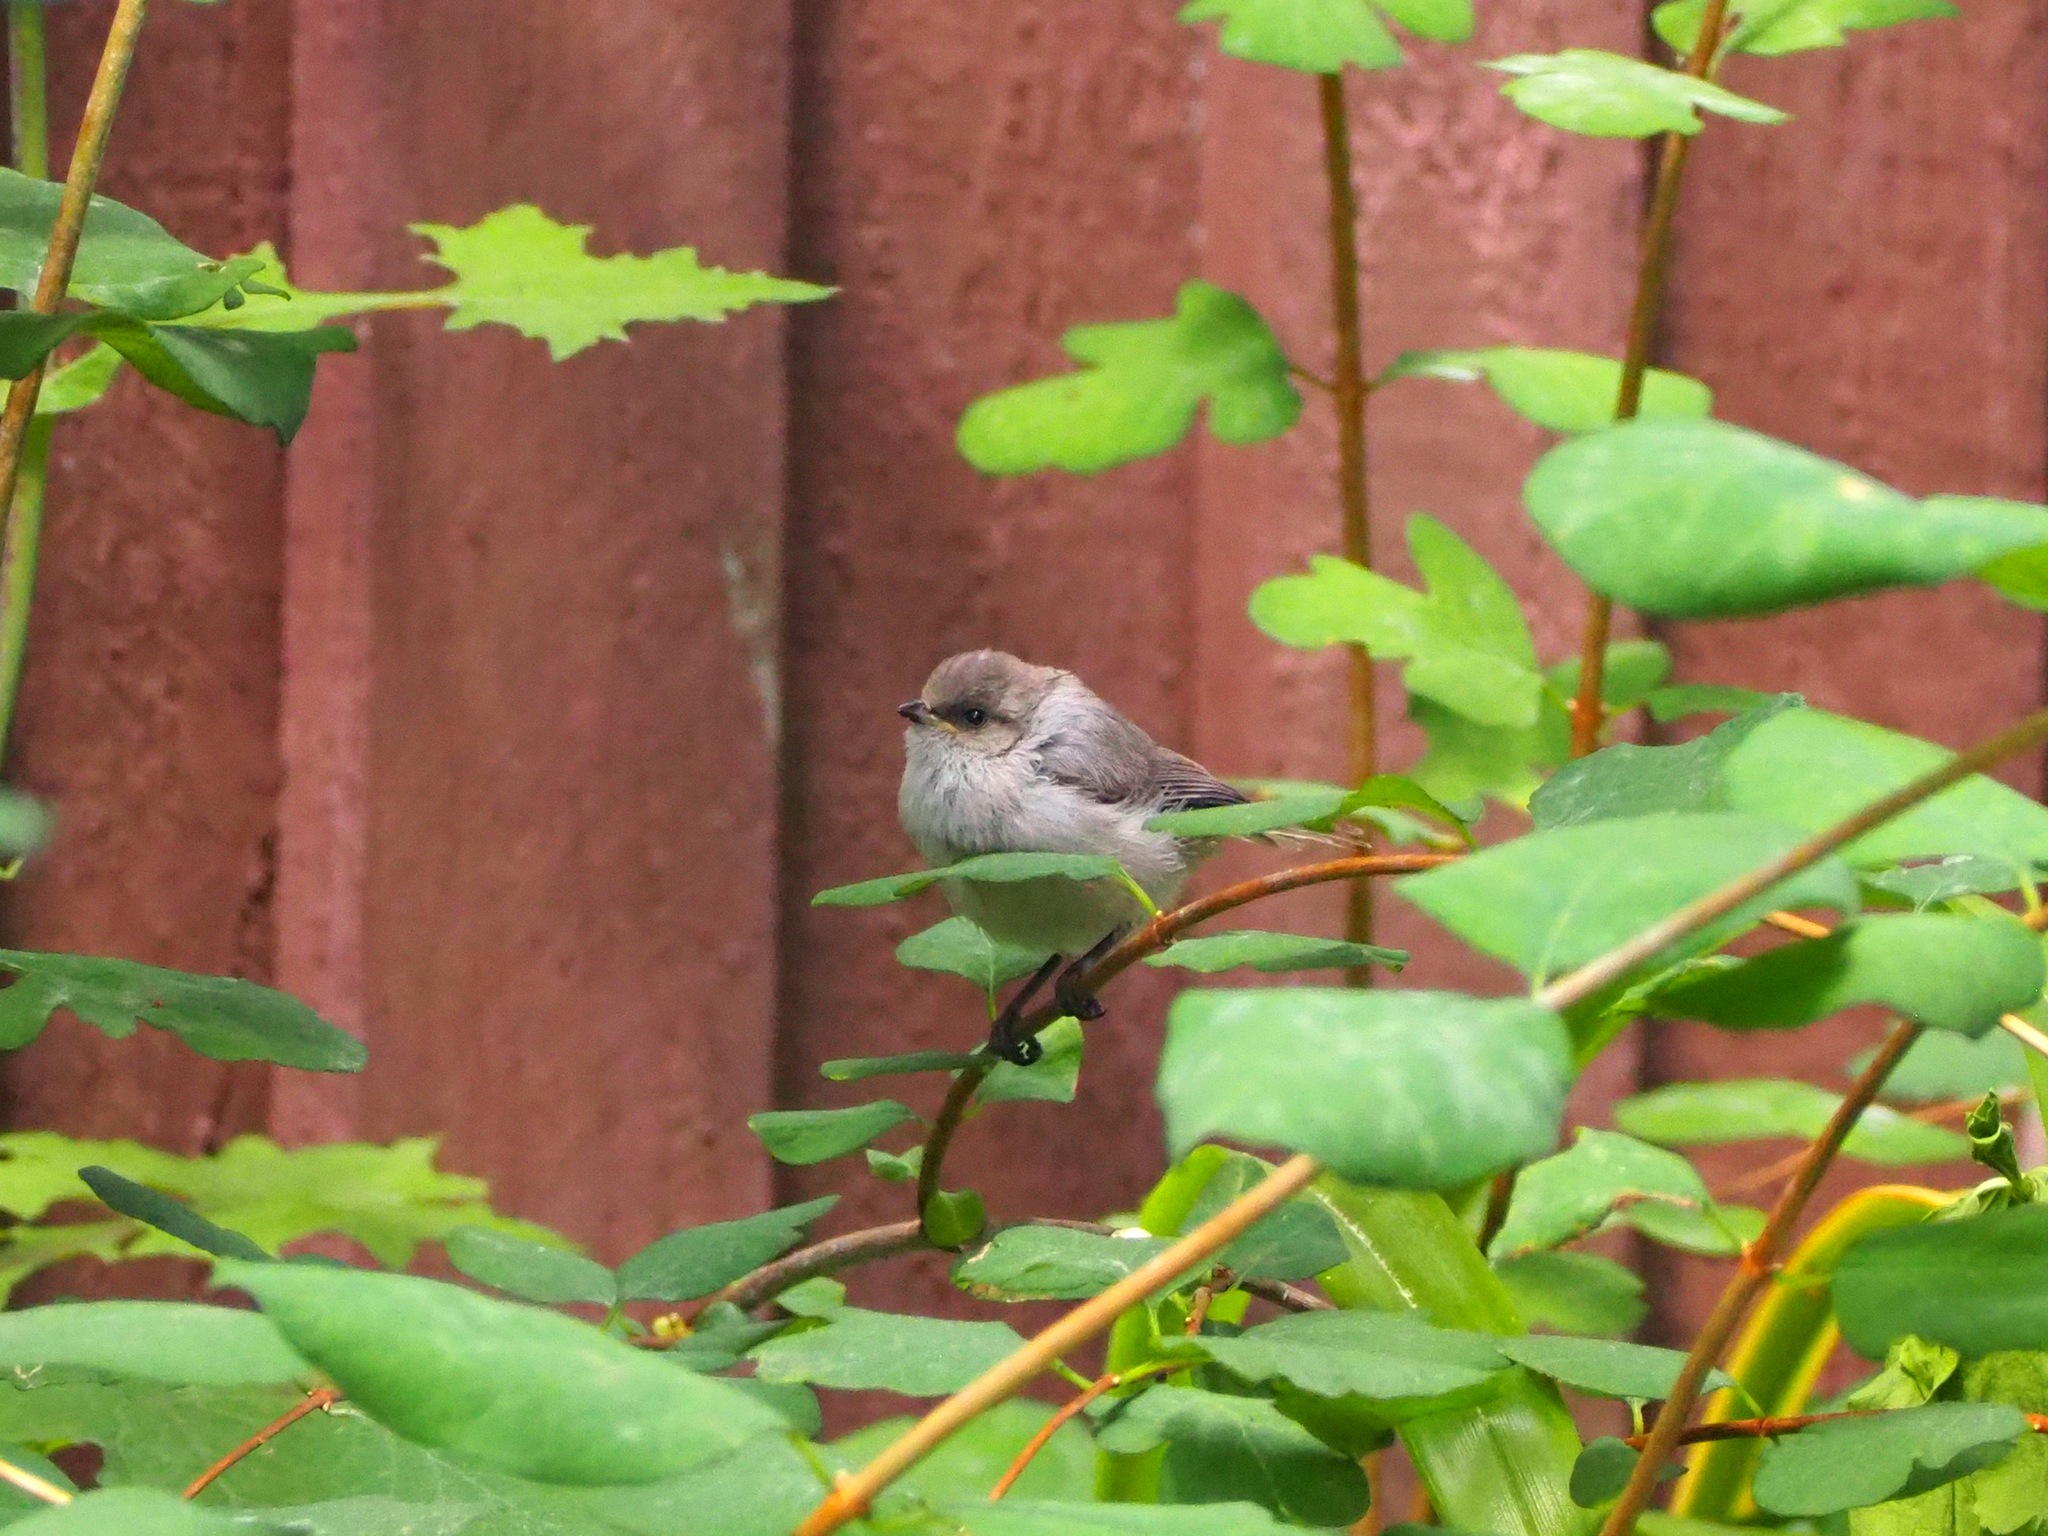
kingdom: Animalia
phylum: Chordata
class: Aves
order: Passeriformes
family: Aegithalidae
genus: Psaltriparus
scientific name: Psaltriparus minimus
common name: American bushtit
